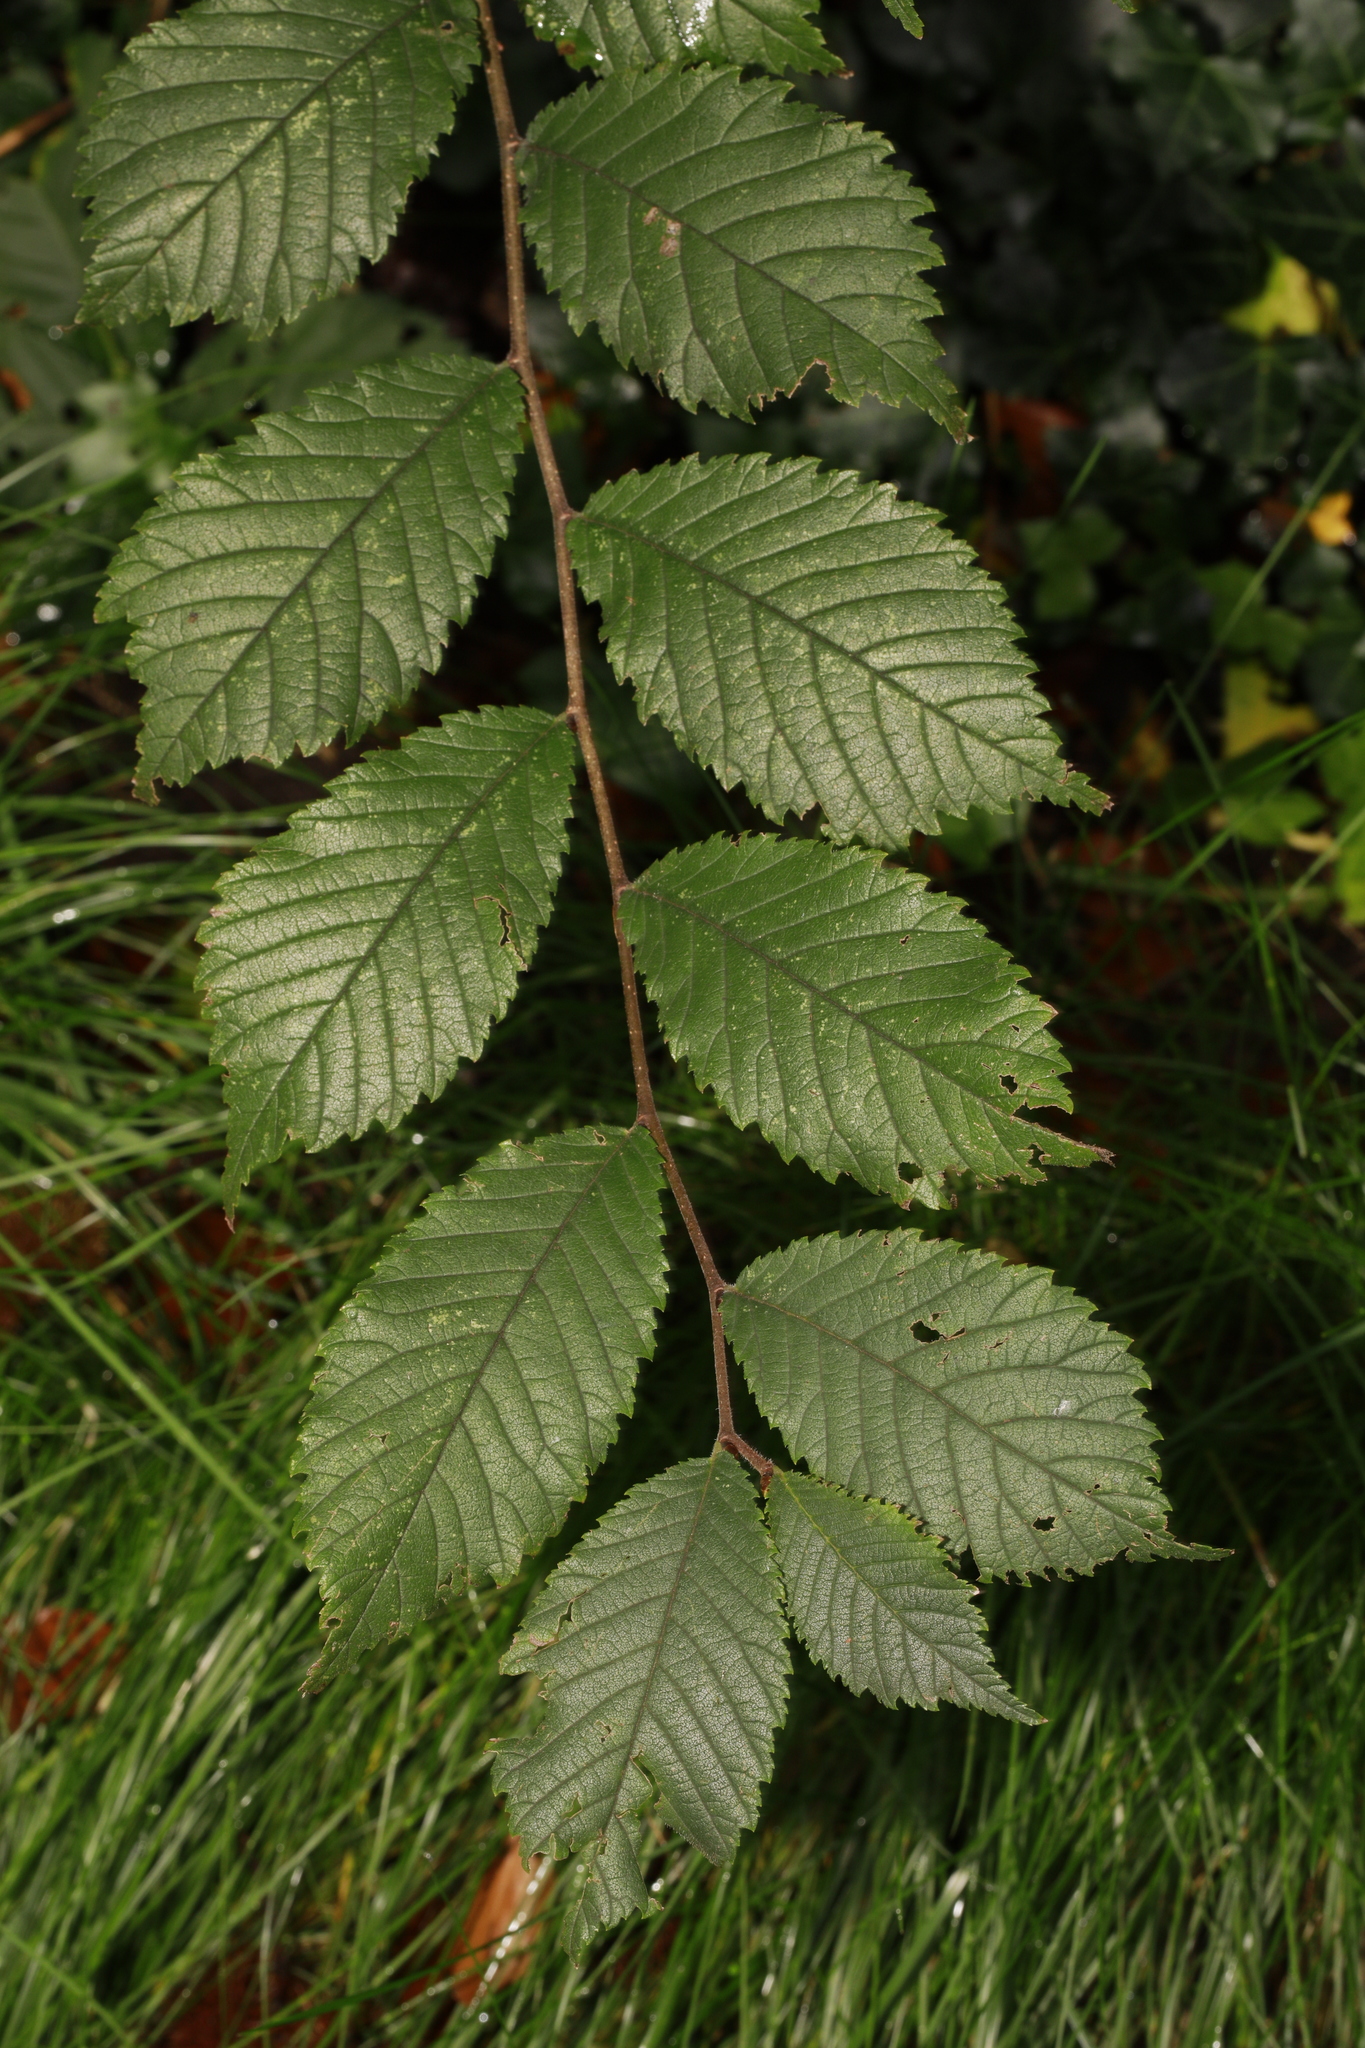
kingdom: Plantae
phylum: Tracheophyta
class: Magnoliopsida
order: Rosales
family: Ulmaceae
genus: Ulmus
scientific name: Ulmus glabra
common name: Wych elm
